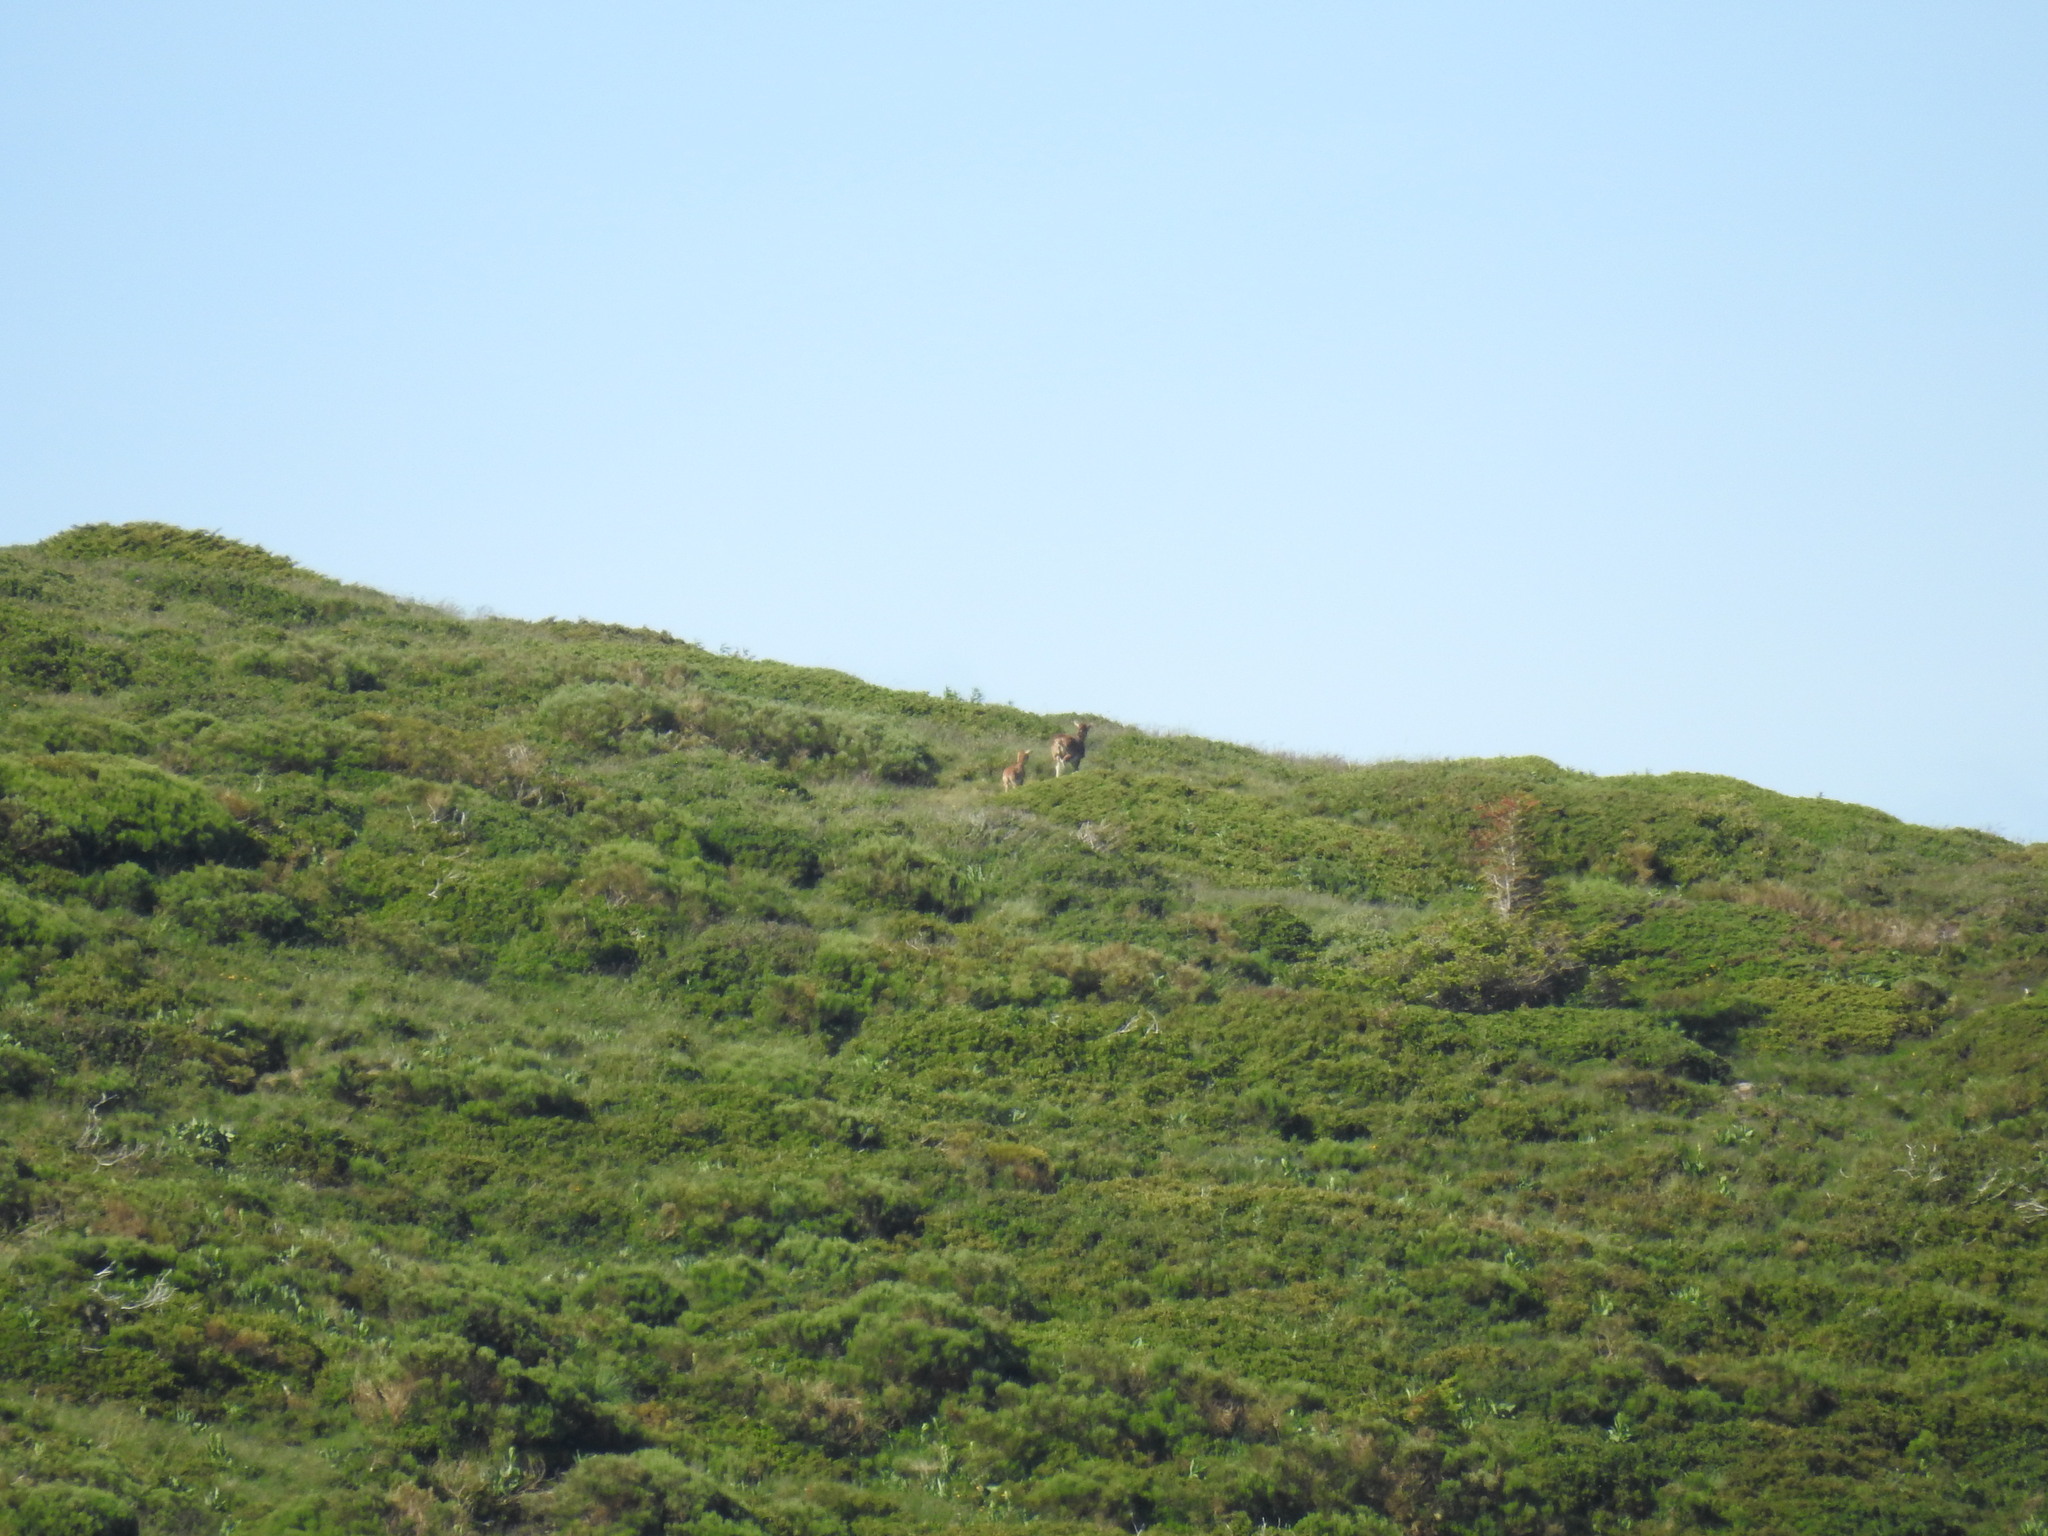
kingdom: Animalia
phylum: Chordata
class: Mammalia
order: Artiodactyla
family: Bovidae
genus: Ovis
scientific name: Ovis aries
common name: Domestic sheep
